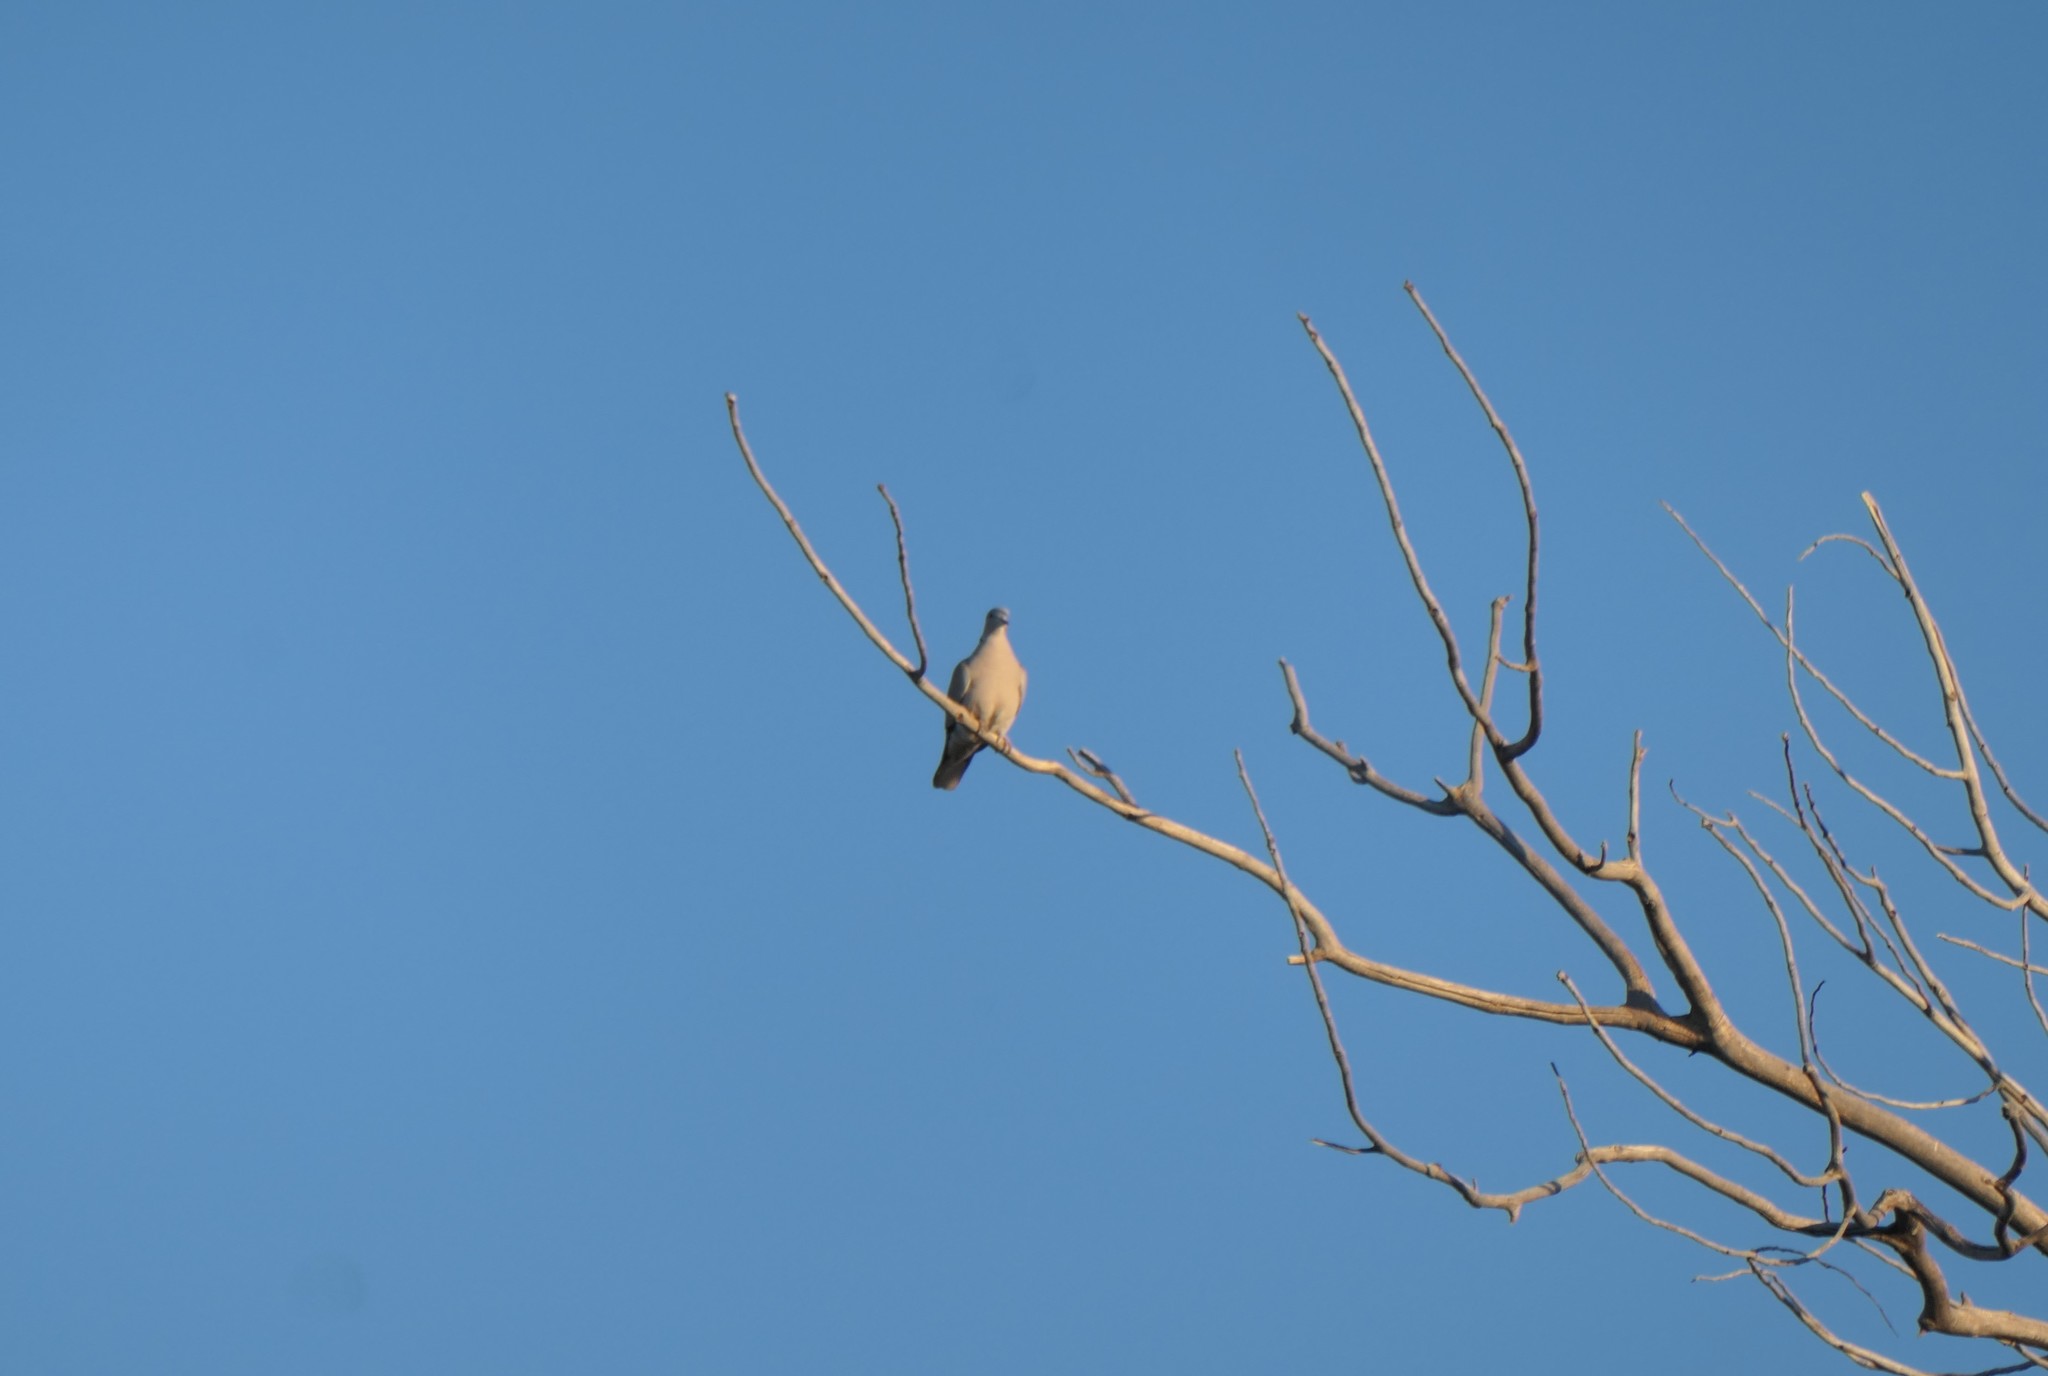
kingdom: Animalia
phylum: Chordata
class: Aves
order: Columbiformes
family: Columbidae
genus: Streptopelia
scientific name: Streptopelia decaocto
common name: Eurasian collared dove
